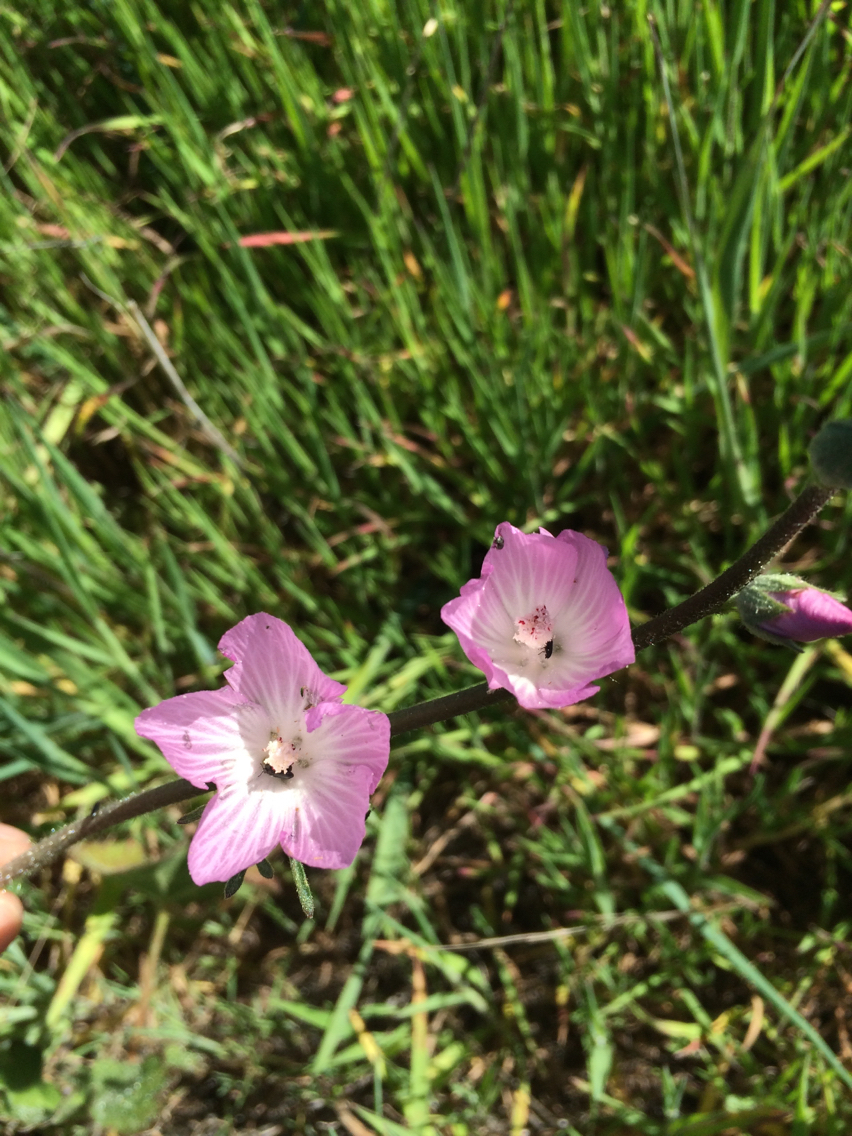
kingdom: Plantae
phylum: Tracheophyta
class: Magnoliopsida
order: Malvales
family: Malvaceae
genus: Sidalcea
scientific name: Sidalcea malviflora
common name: Greek mallow
